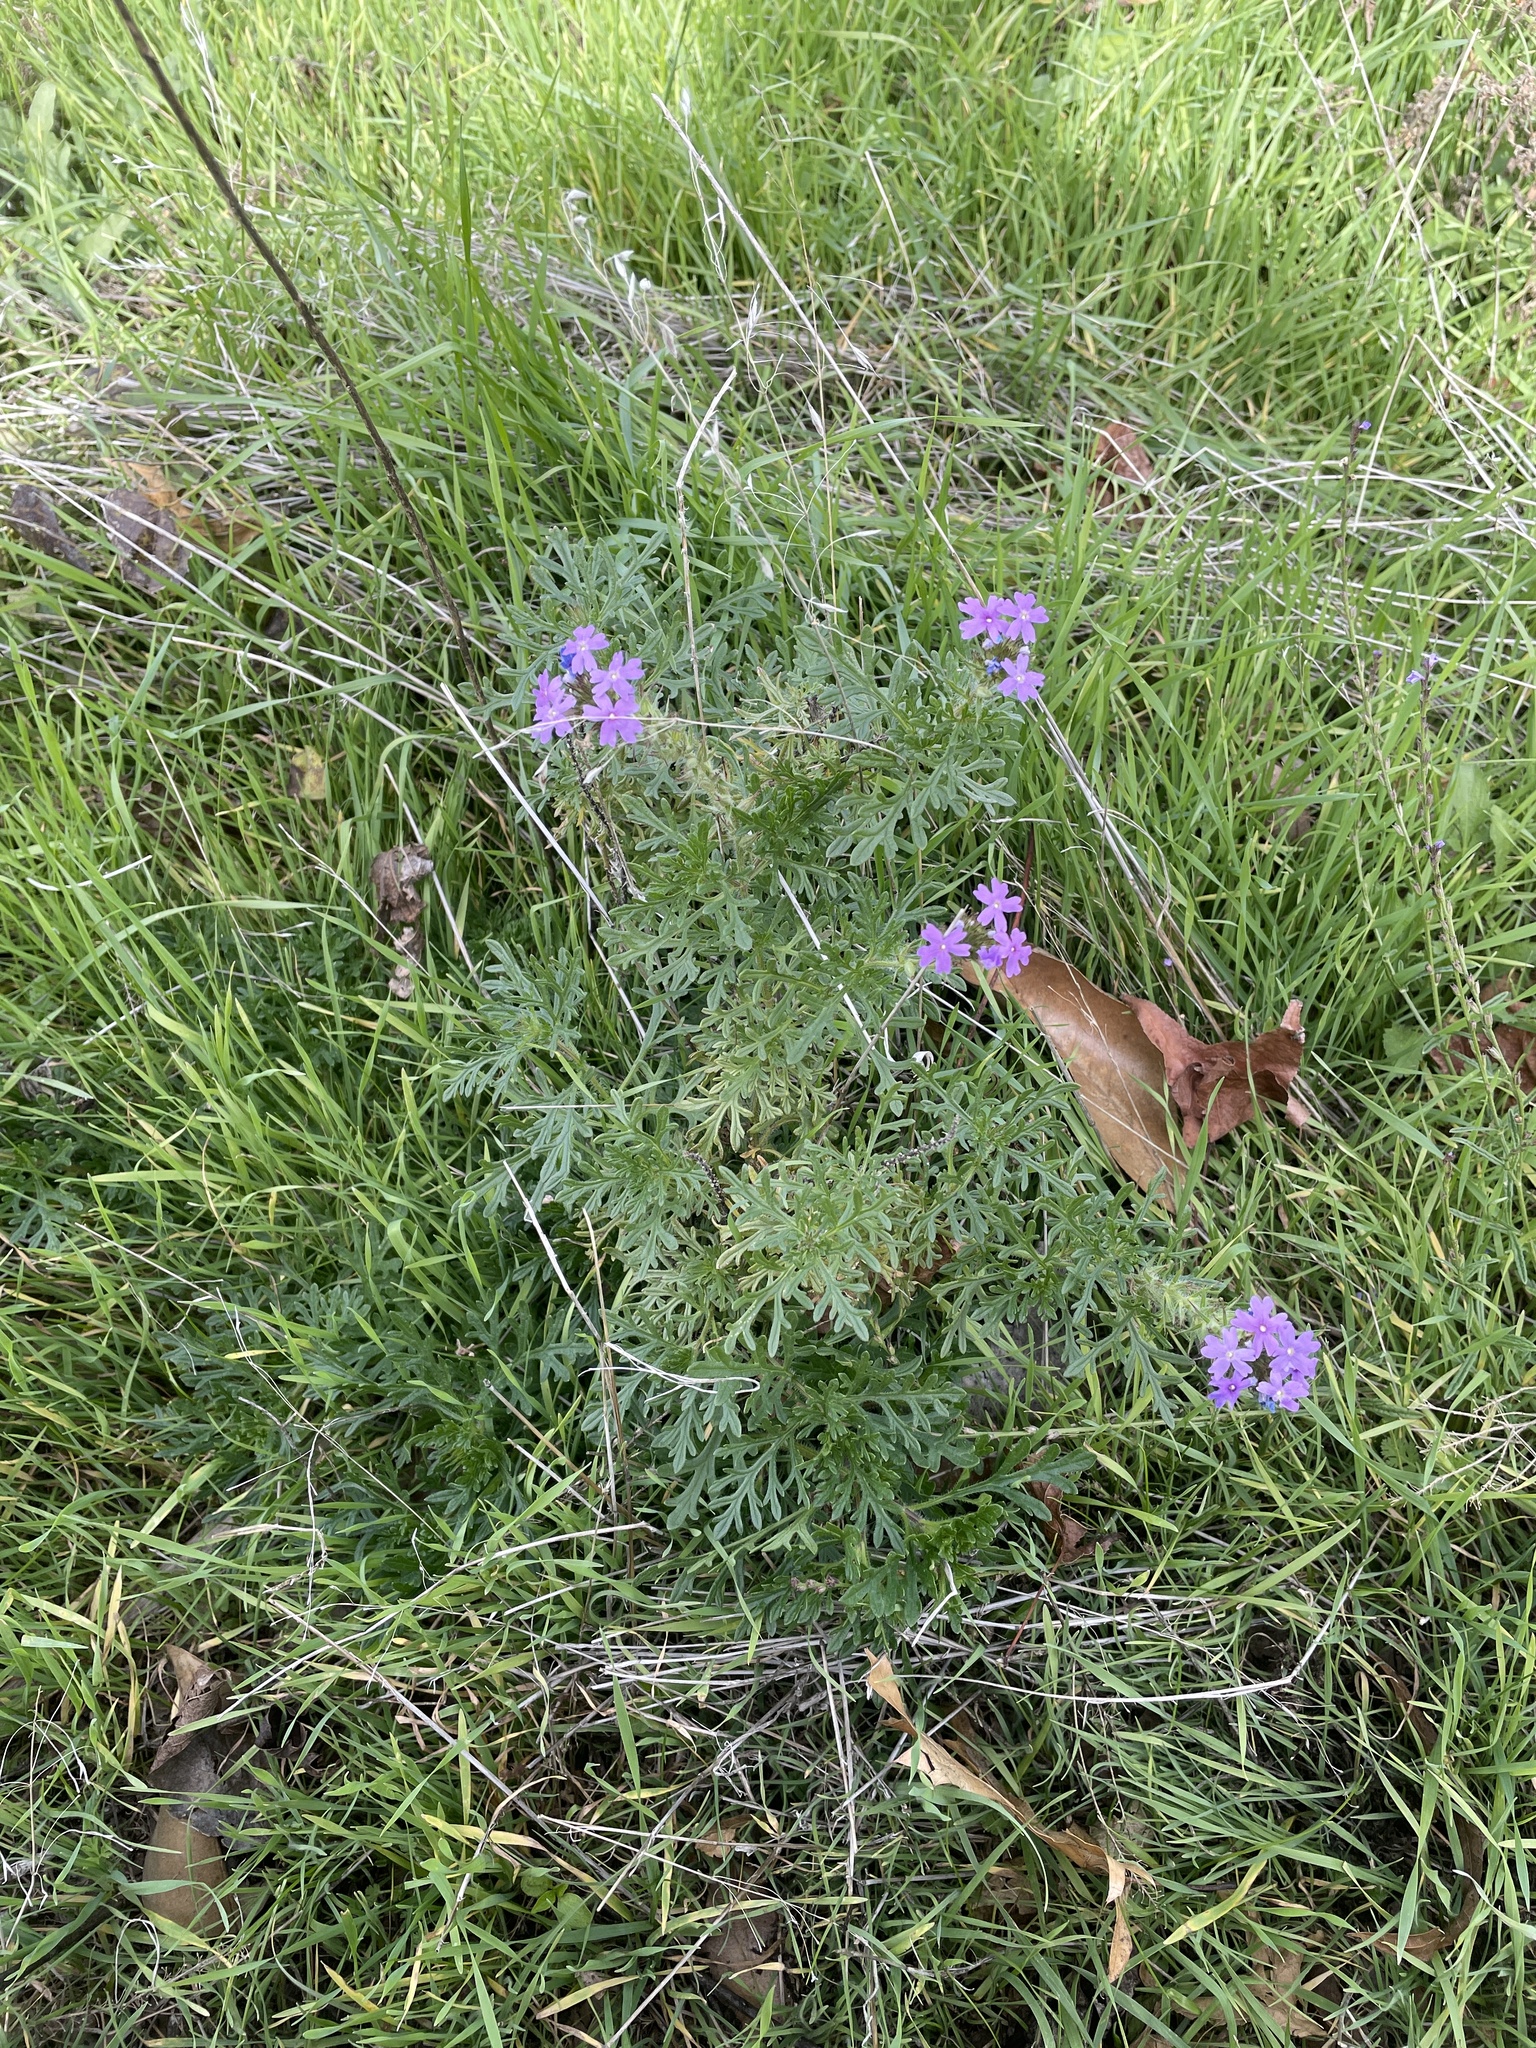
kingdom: Plantae
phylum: Tracheophyta
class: Magnoliopsida
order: Lamiales
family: Verbenaceae
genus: Verbena
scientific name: Verbena bipinnatifida
